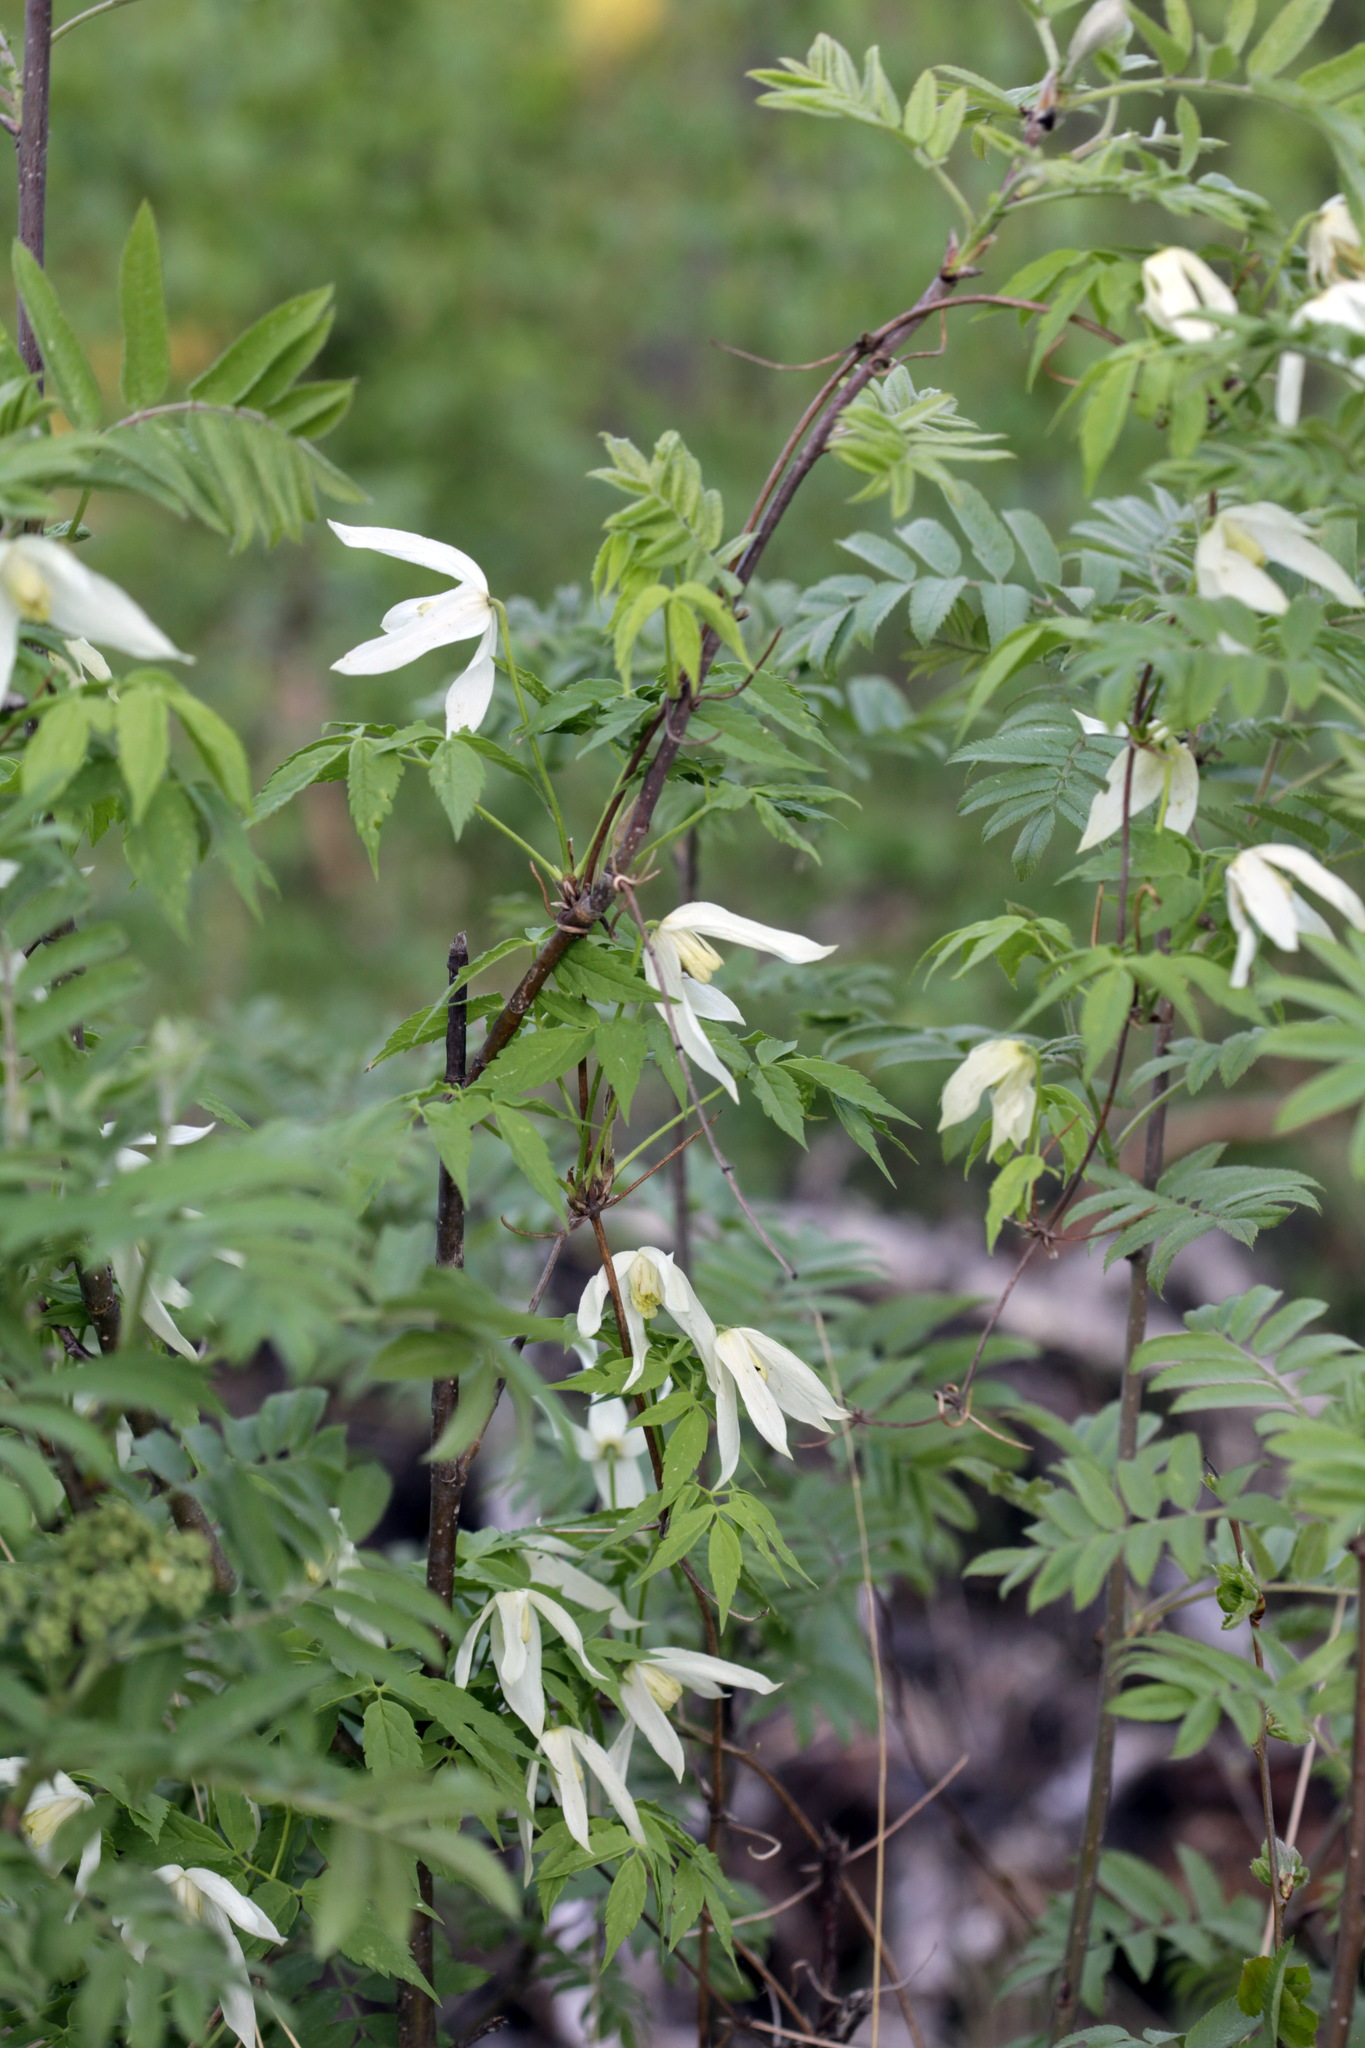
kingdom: Plantae
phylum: Tracheophyta
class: Magnoliopsida
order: Ranunculales
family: Ranunculaceae
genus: Clematis
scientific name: Clematis sibirica
